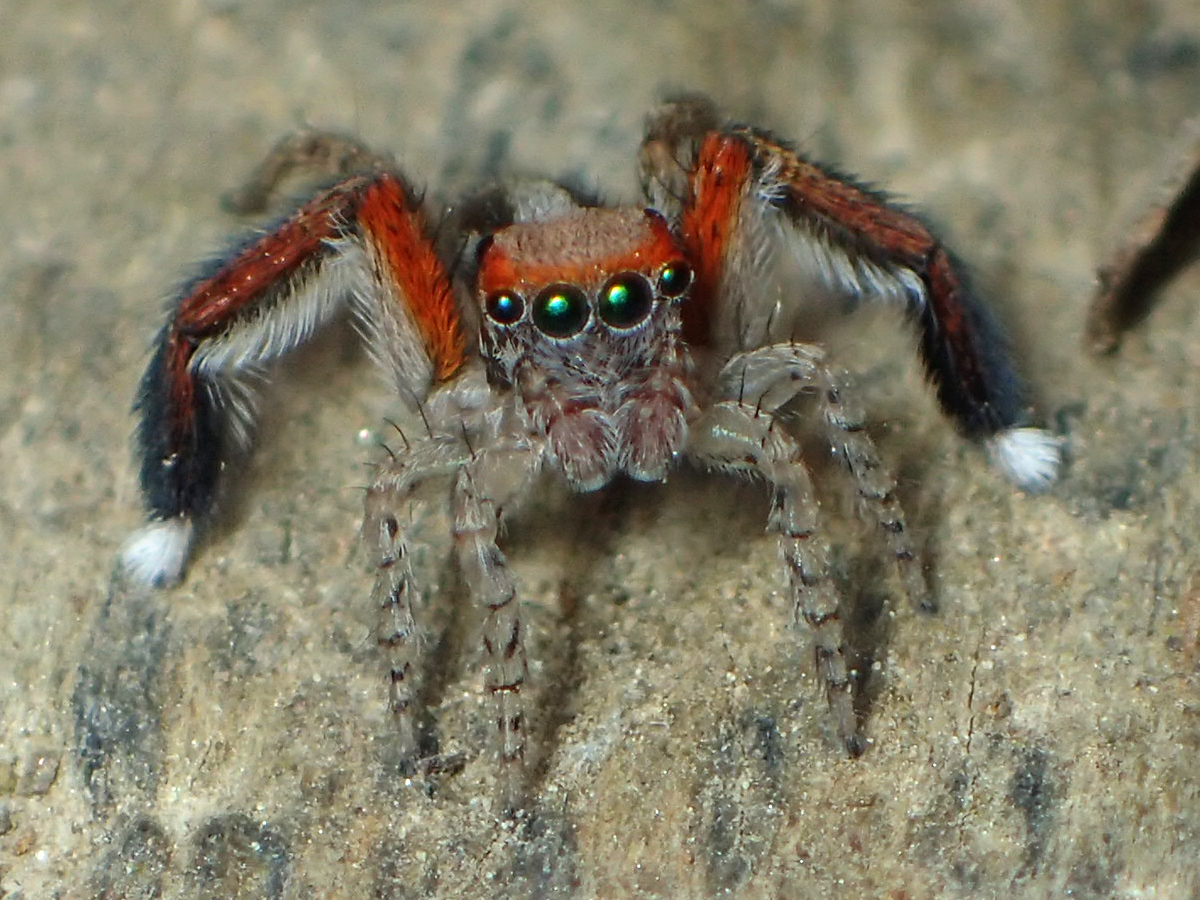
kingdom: Animalia
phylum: Arthropoda
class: Arachnida
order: Araneae
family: Salticidae
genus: Saitis
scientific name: Saitis barbipes
